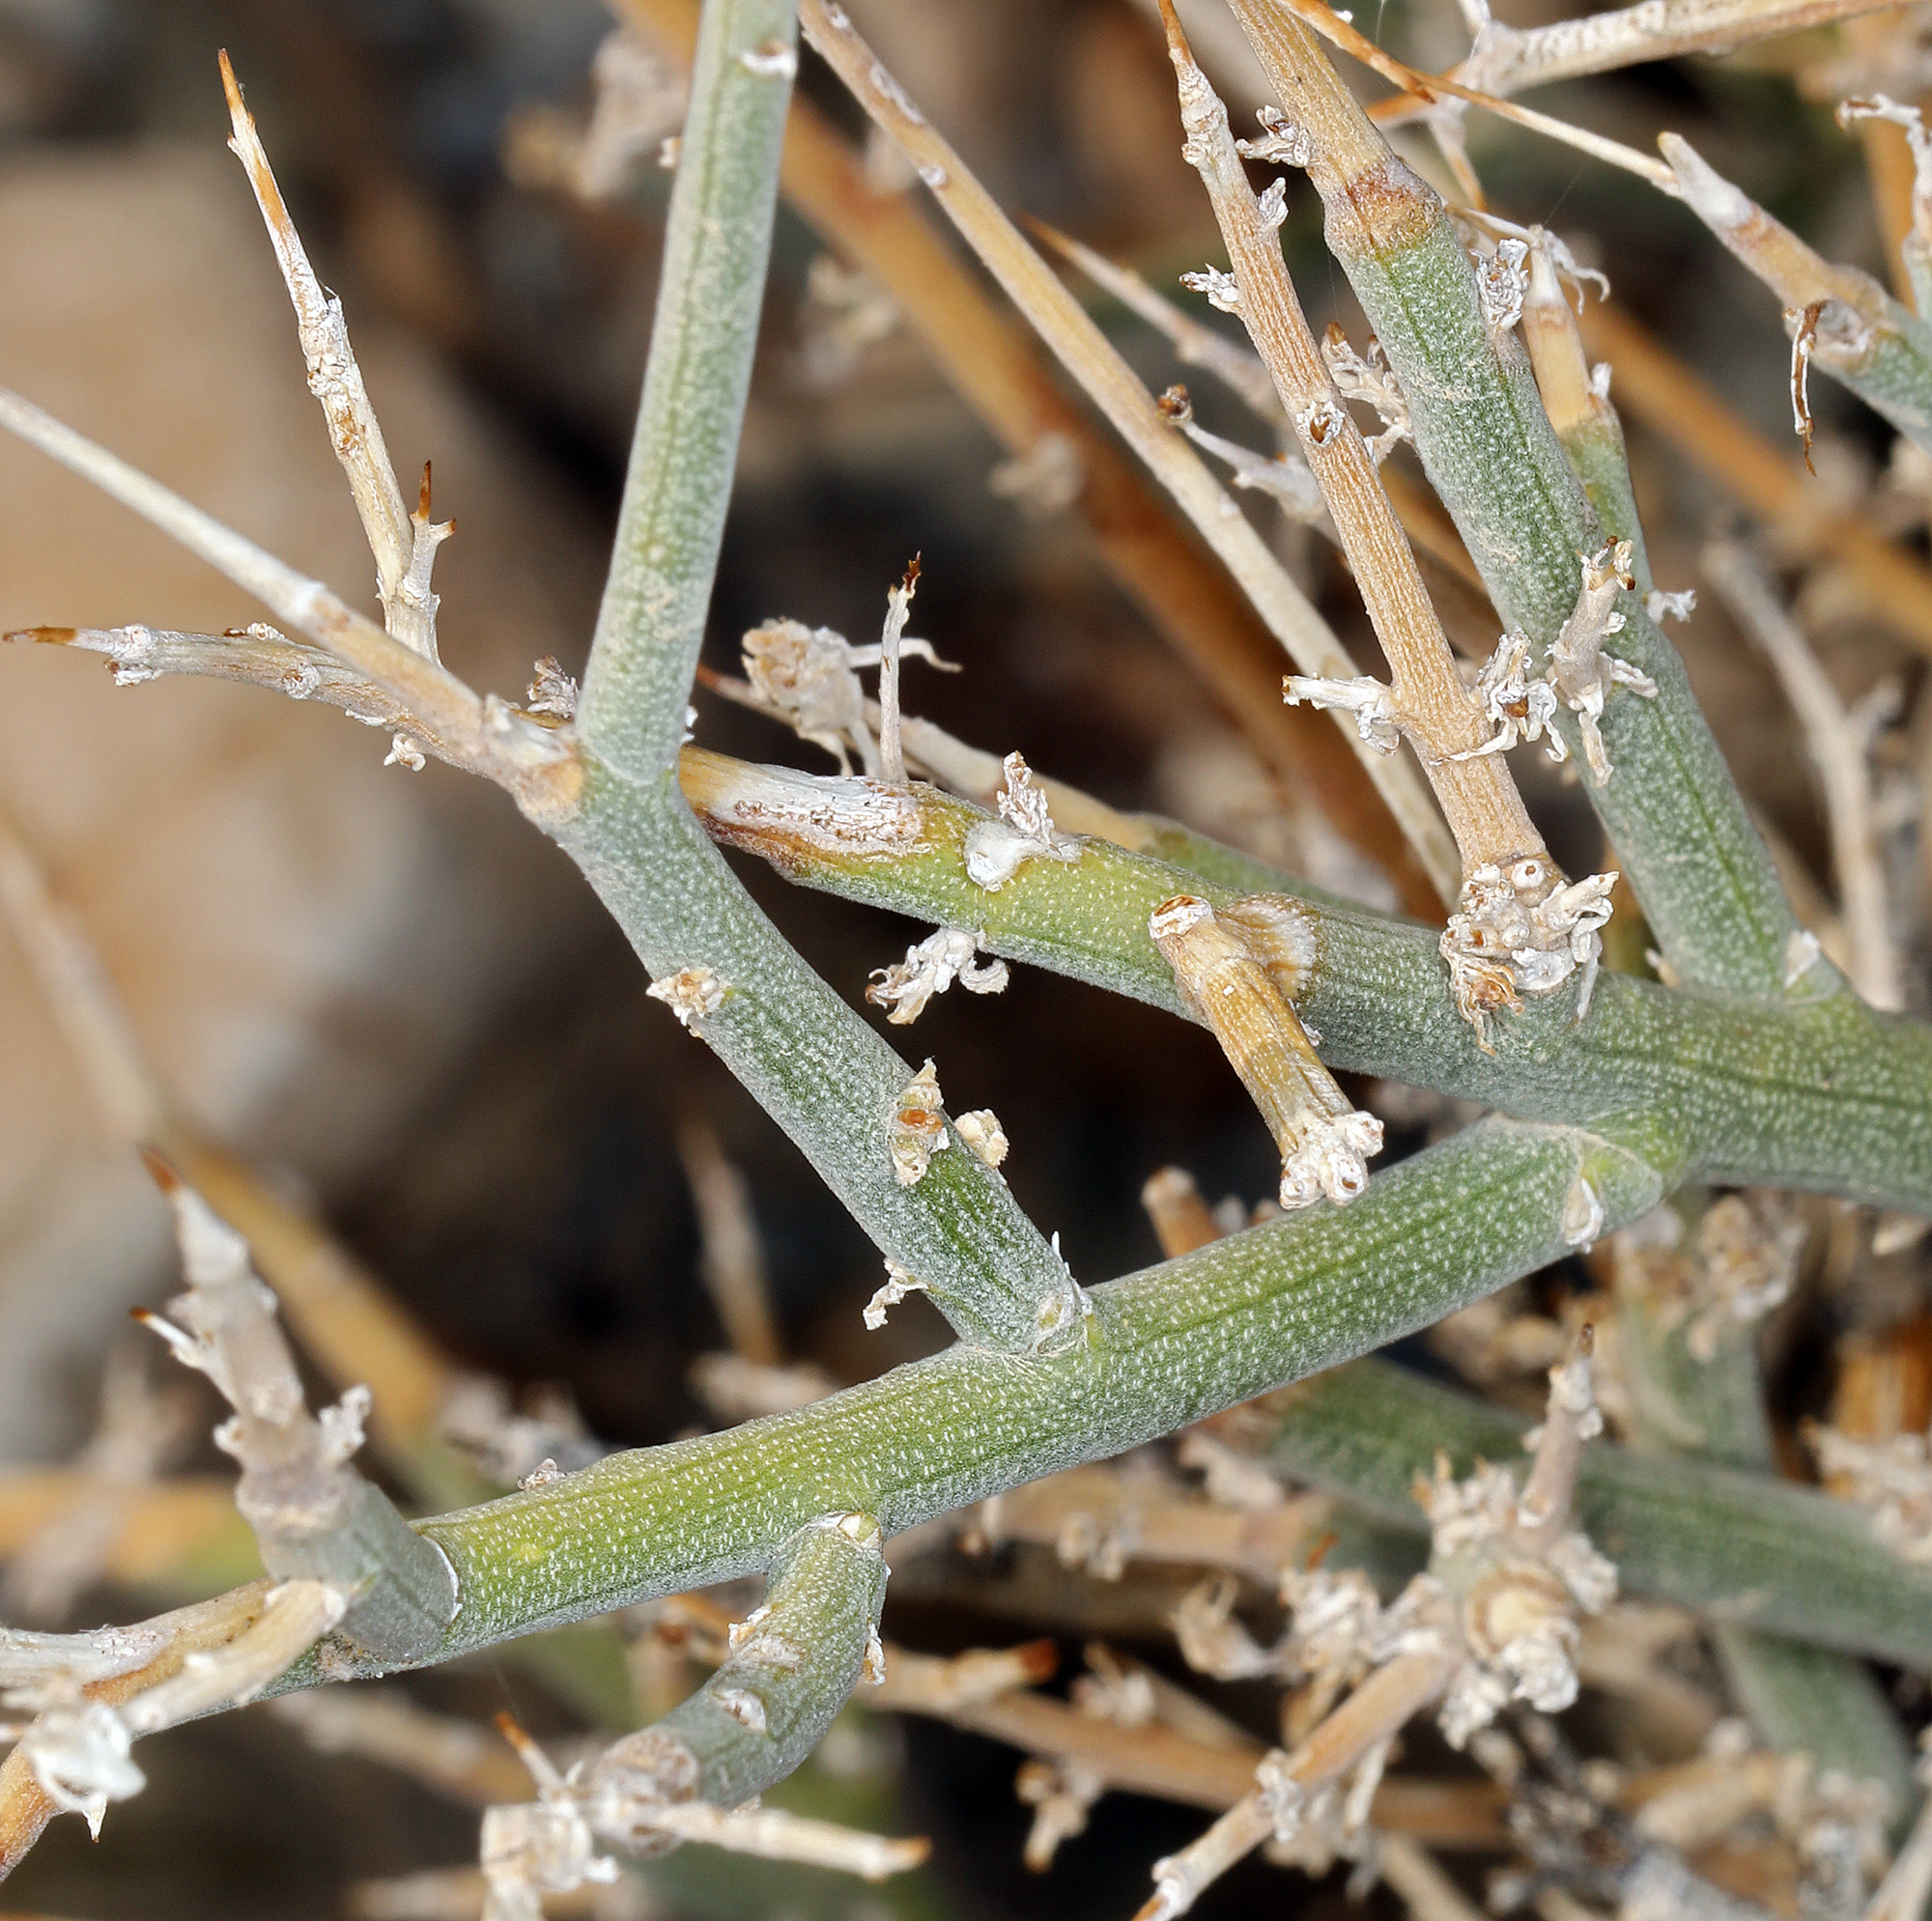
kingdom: Plantae
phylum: Tracheophyta
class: Magnoliopsida
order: Lamiales
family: Oleaceae
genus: Menodora
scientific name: Menodora spinescens
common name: Spiny menodora
